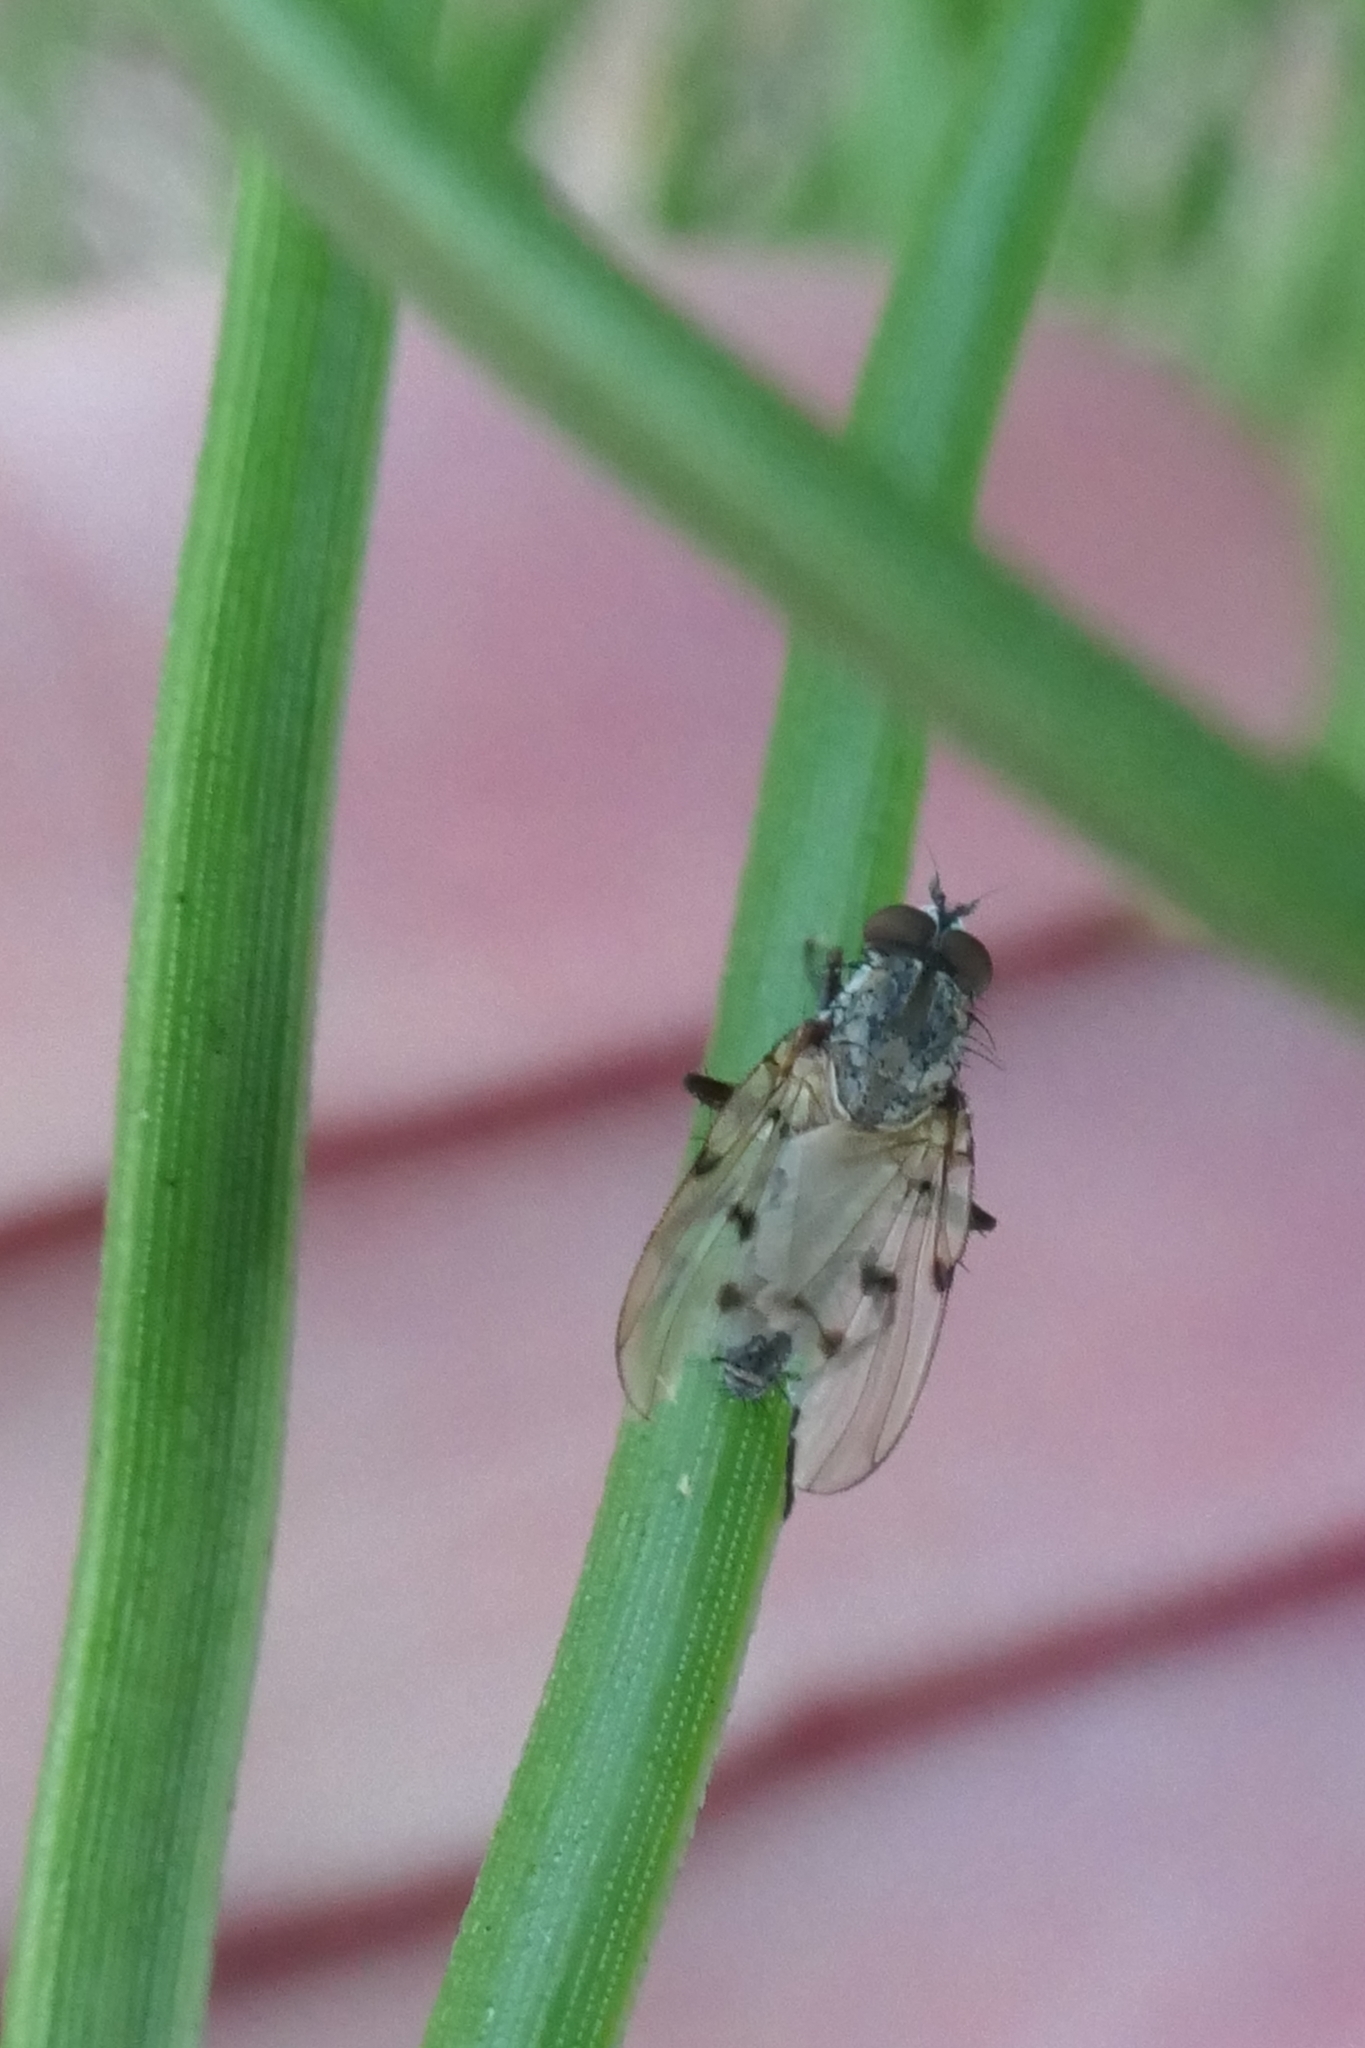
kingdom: Animalia
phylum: Arthropoda
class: Insecta
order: Diptera
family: Anthomyiidae
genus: Anthomyia
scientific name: Anthomyia punctipennis
